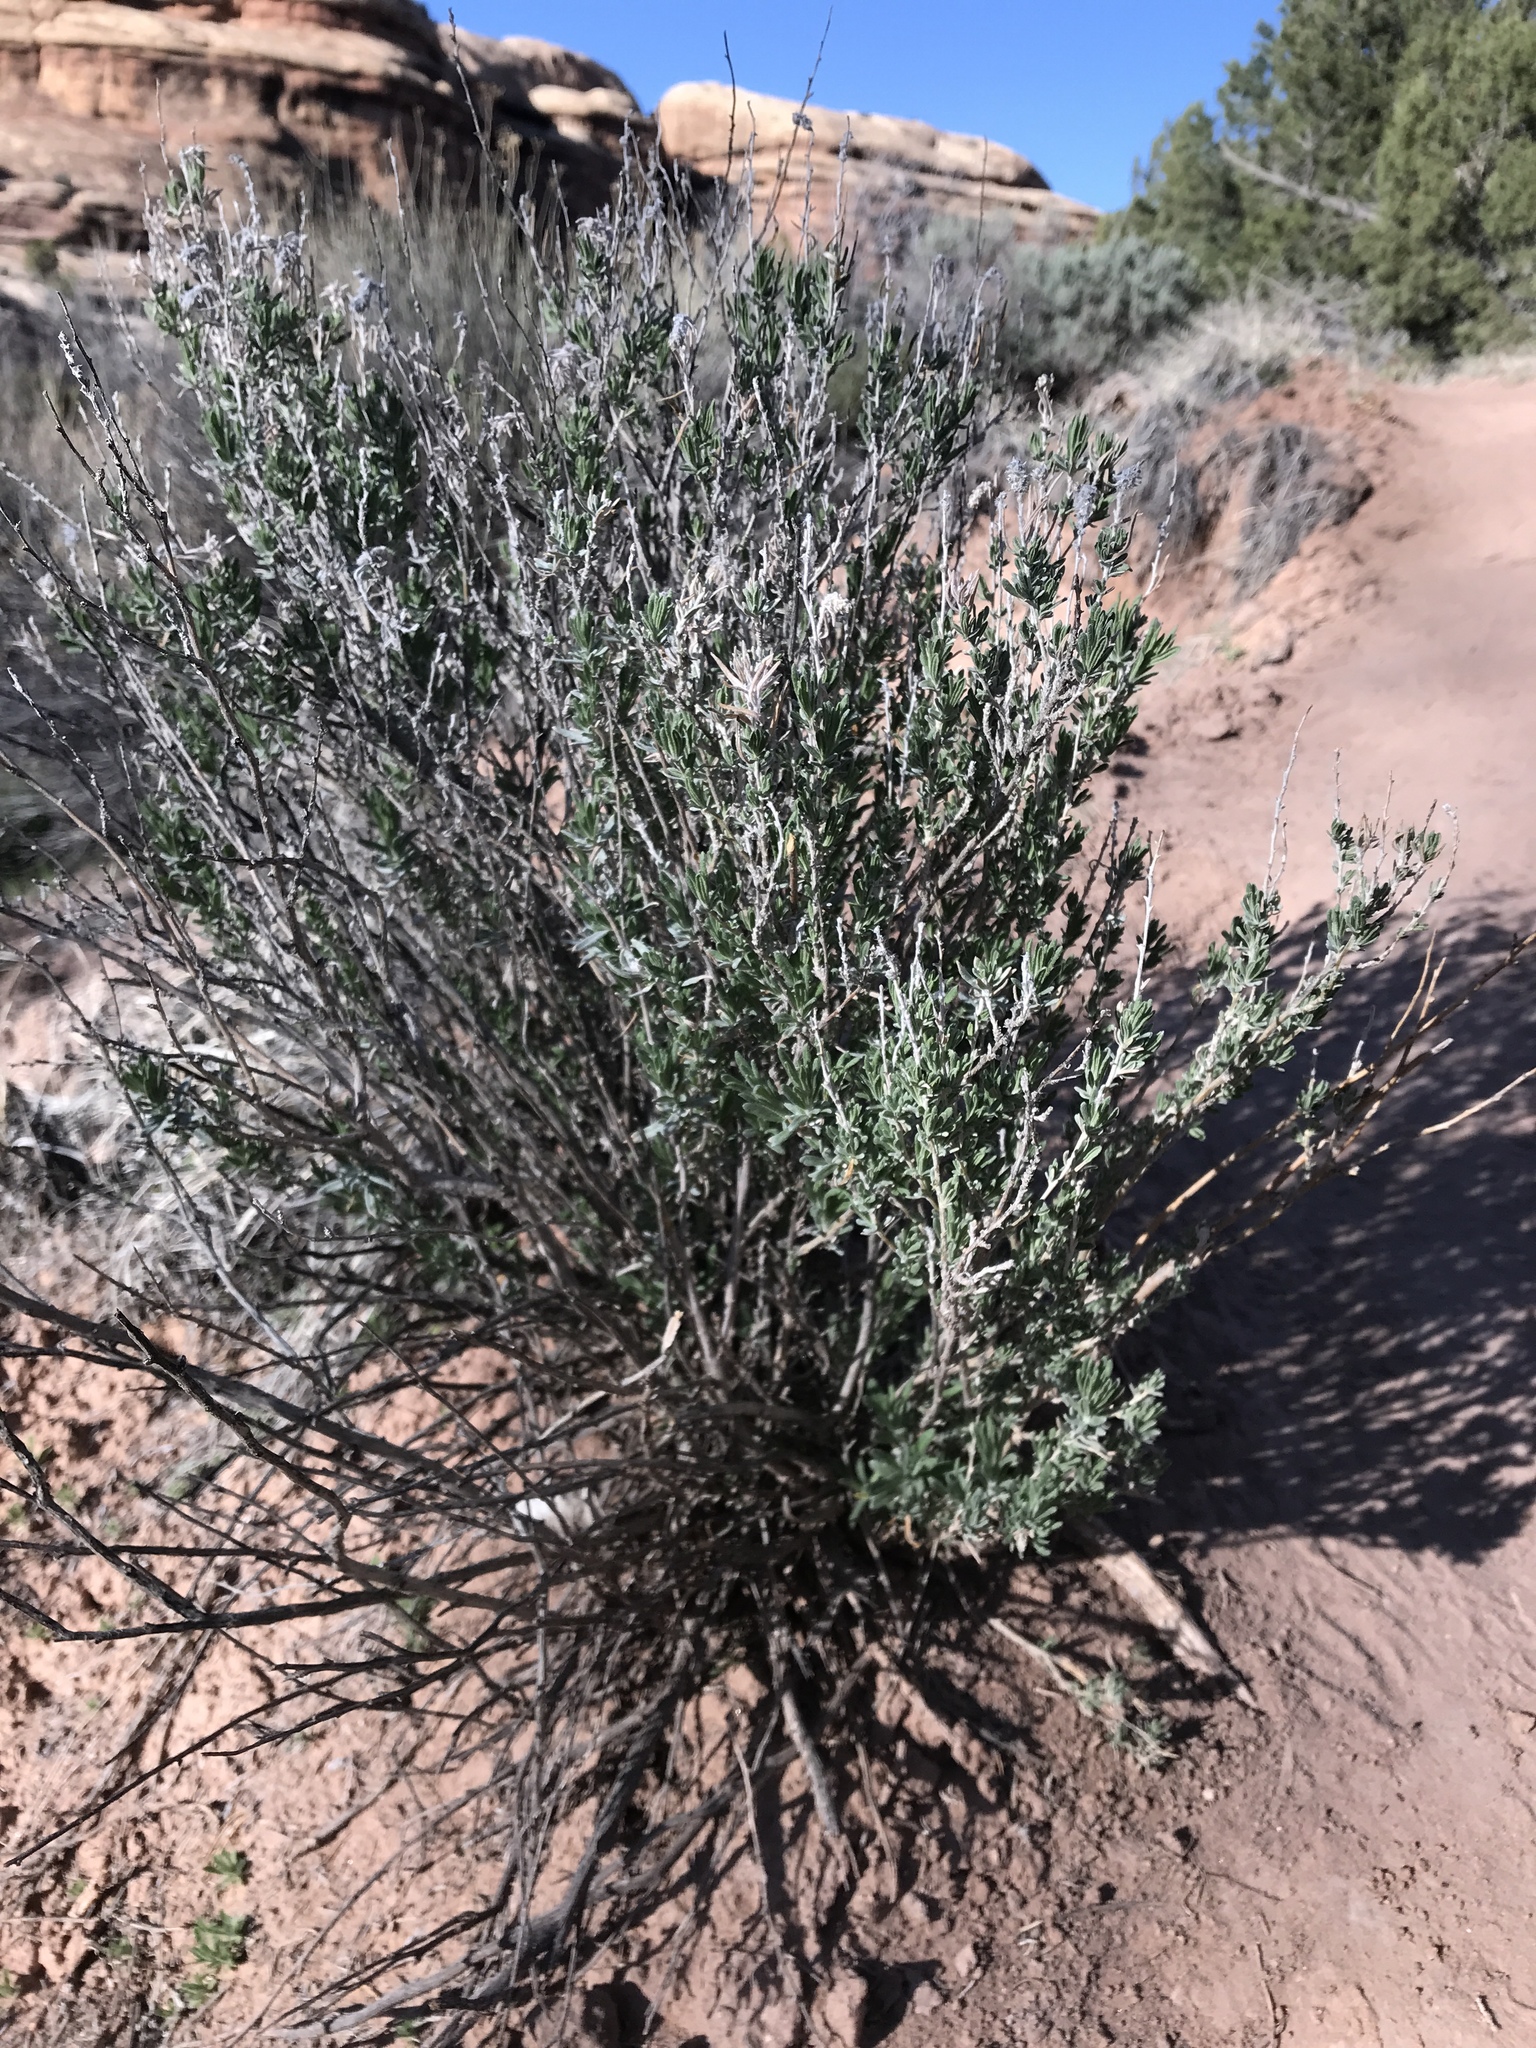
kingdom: Plantae
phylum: Tracheophyta
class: Magnoliopsida
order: Caryophyllales
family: Amaranthaceae
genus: Krascheninnikovia
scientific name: Krascheninnikovia lanata
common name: Winterfat
